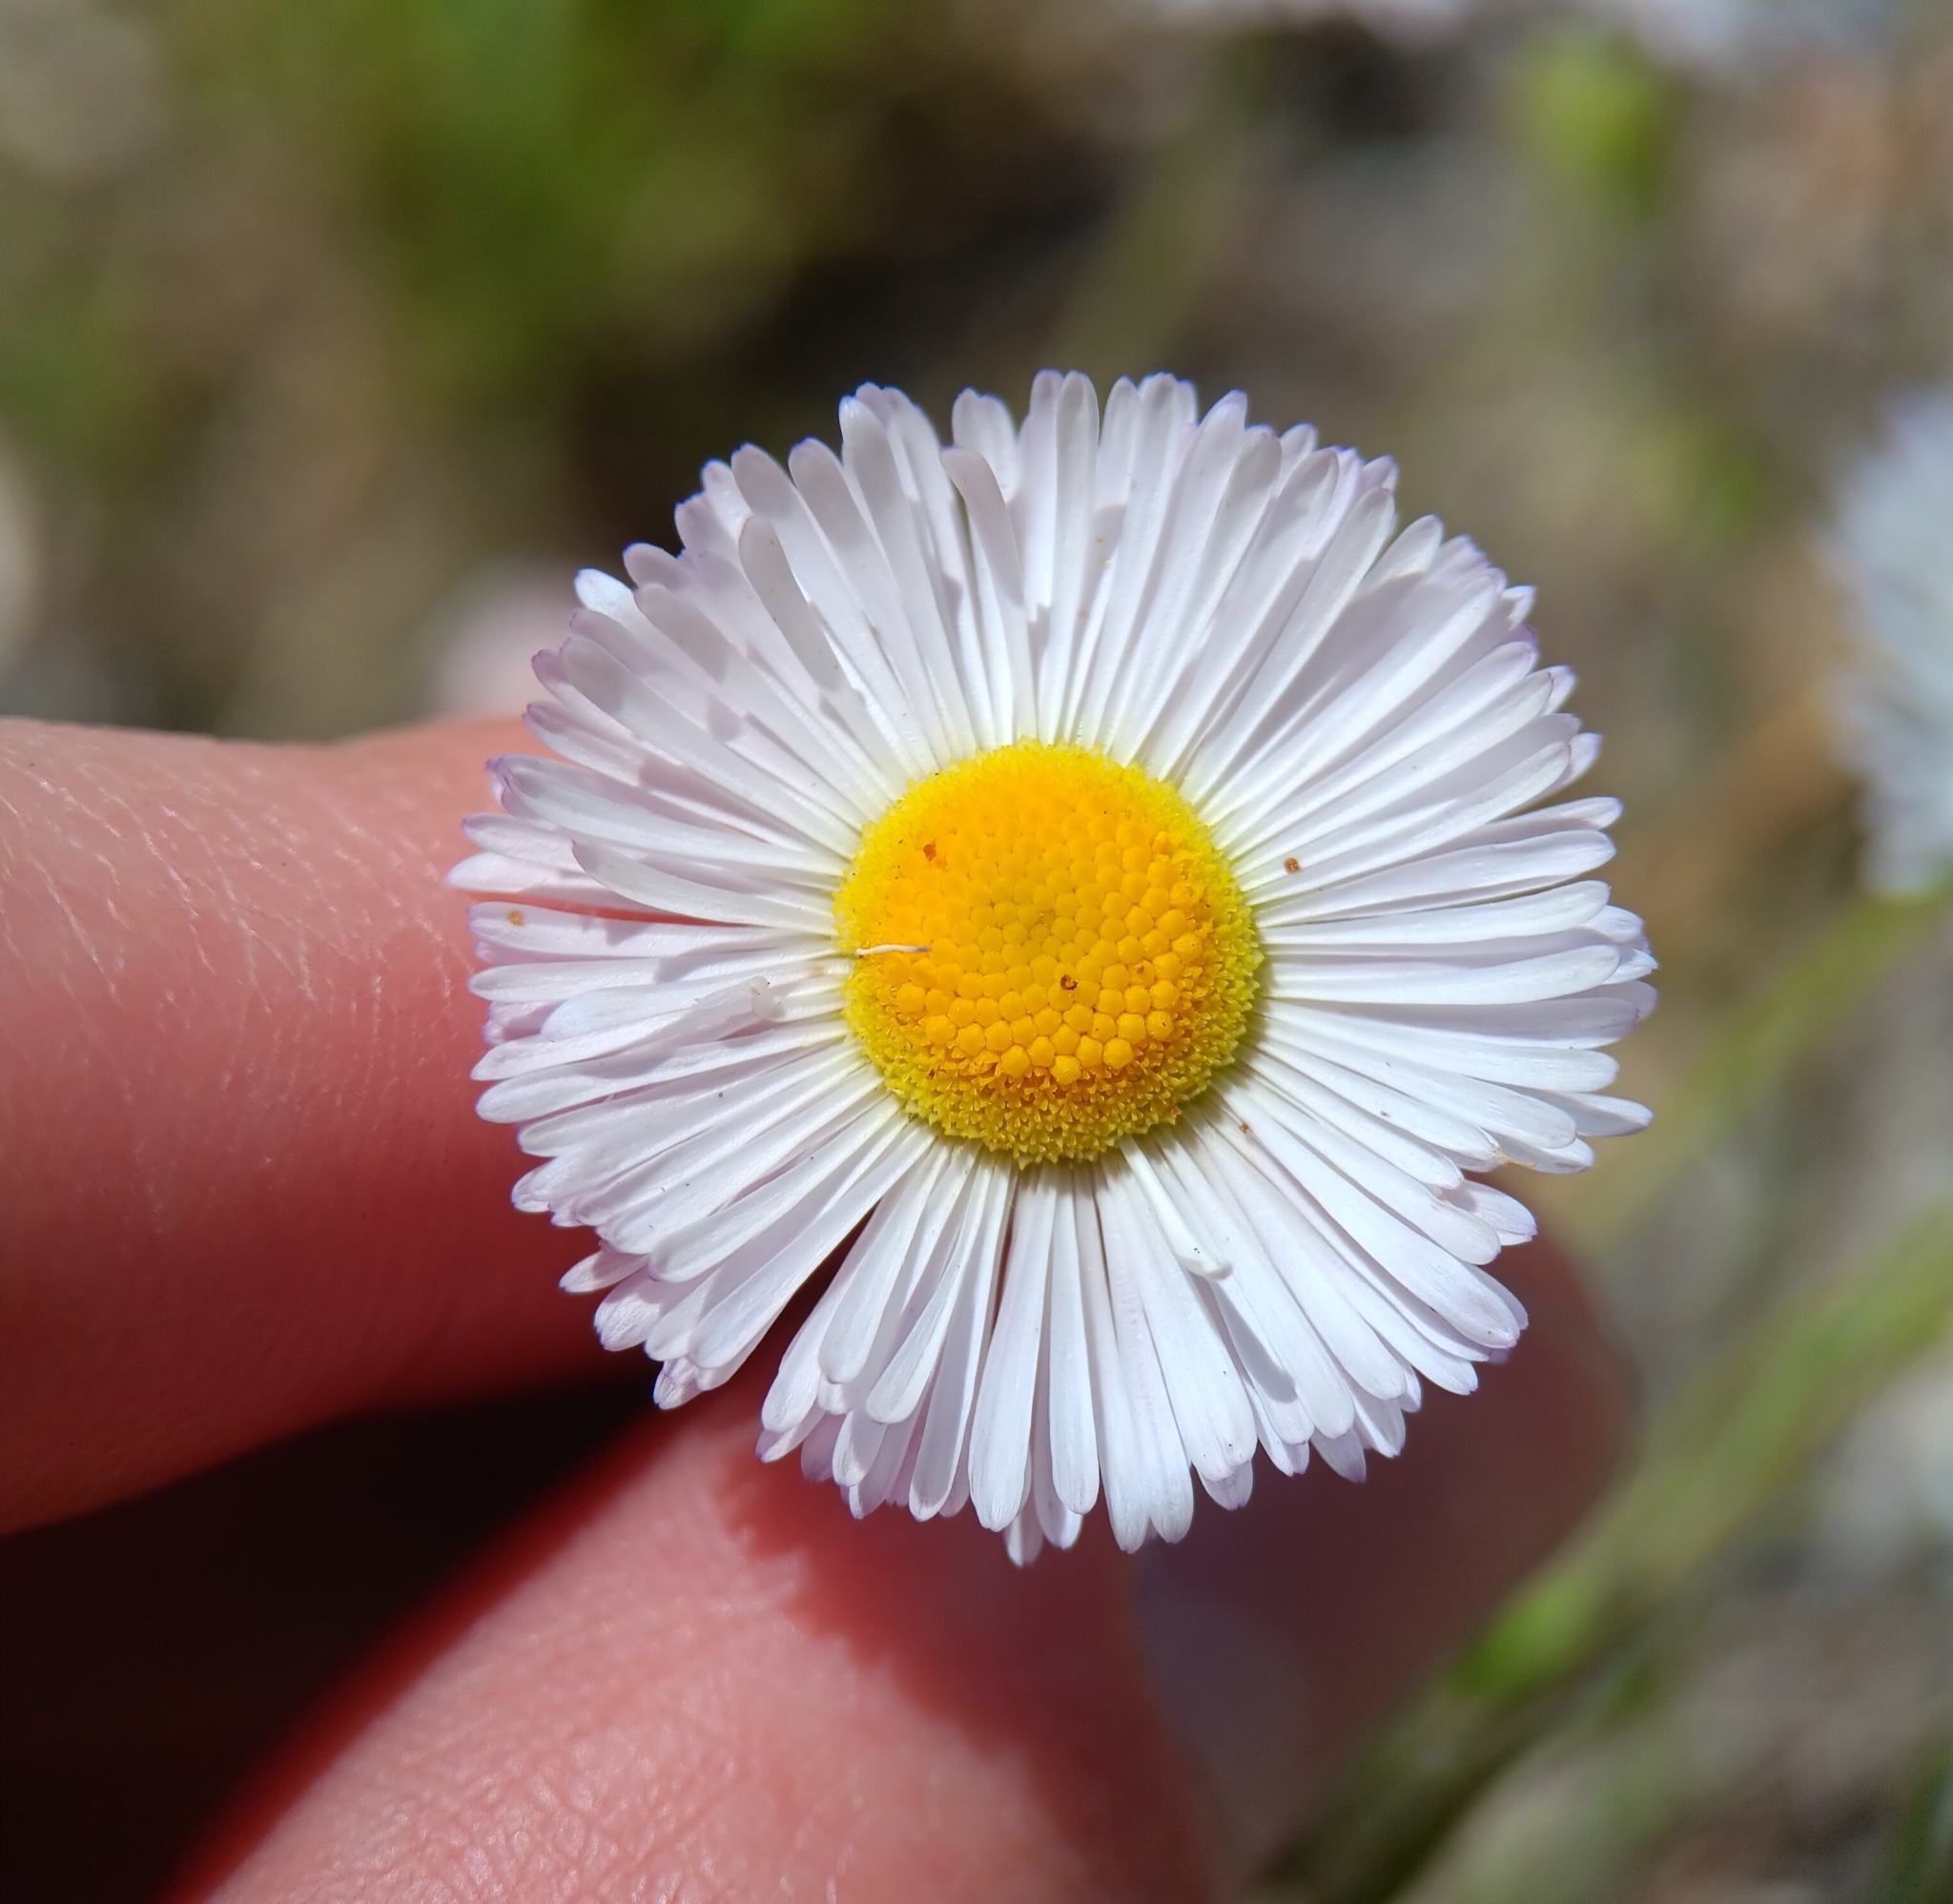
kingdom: Plantae
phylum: Tracheophyta
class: Magnoliopsida
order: Asterales
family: Asteraceae
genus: Erigeron
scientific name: Erigeron divergens
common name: Diffuse fleabane
